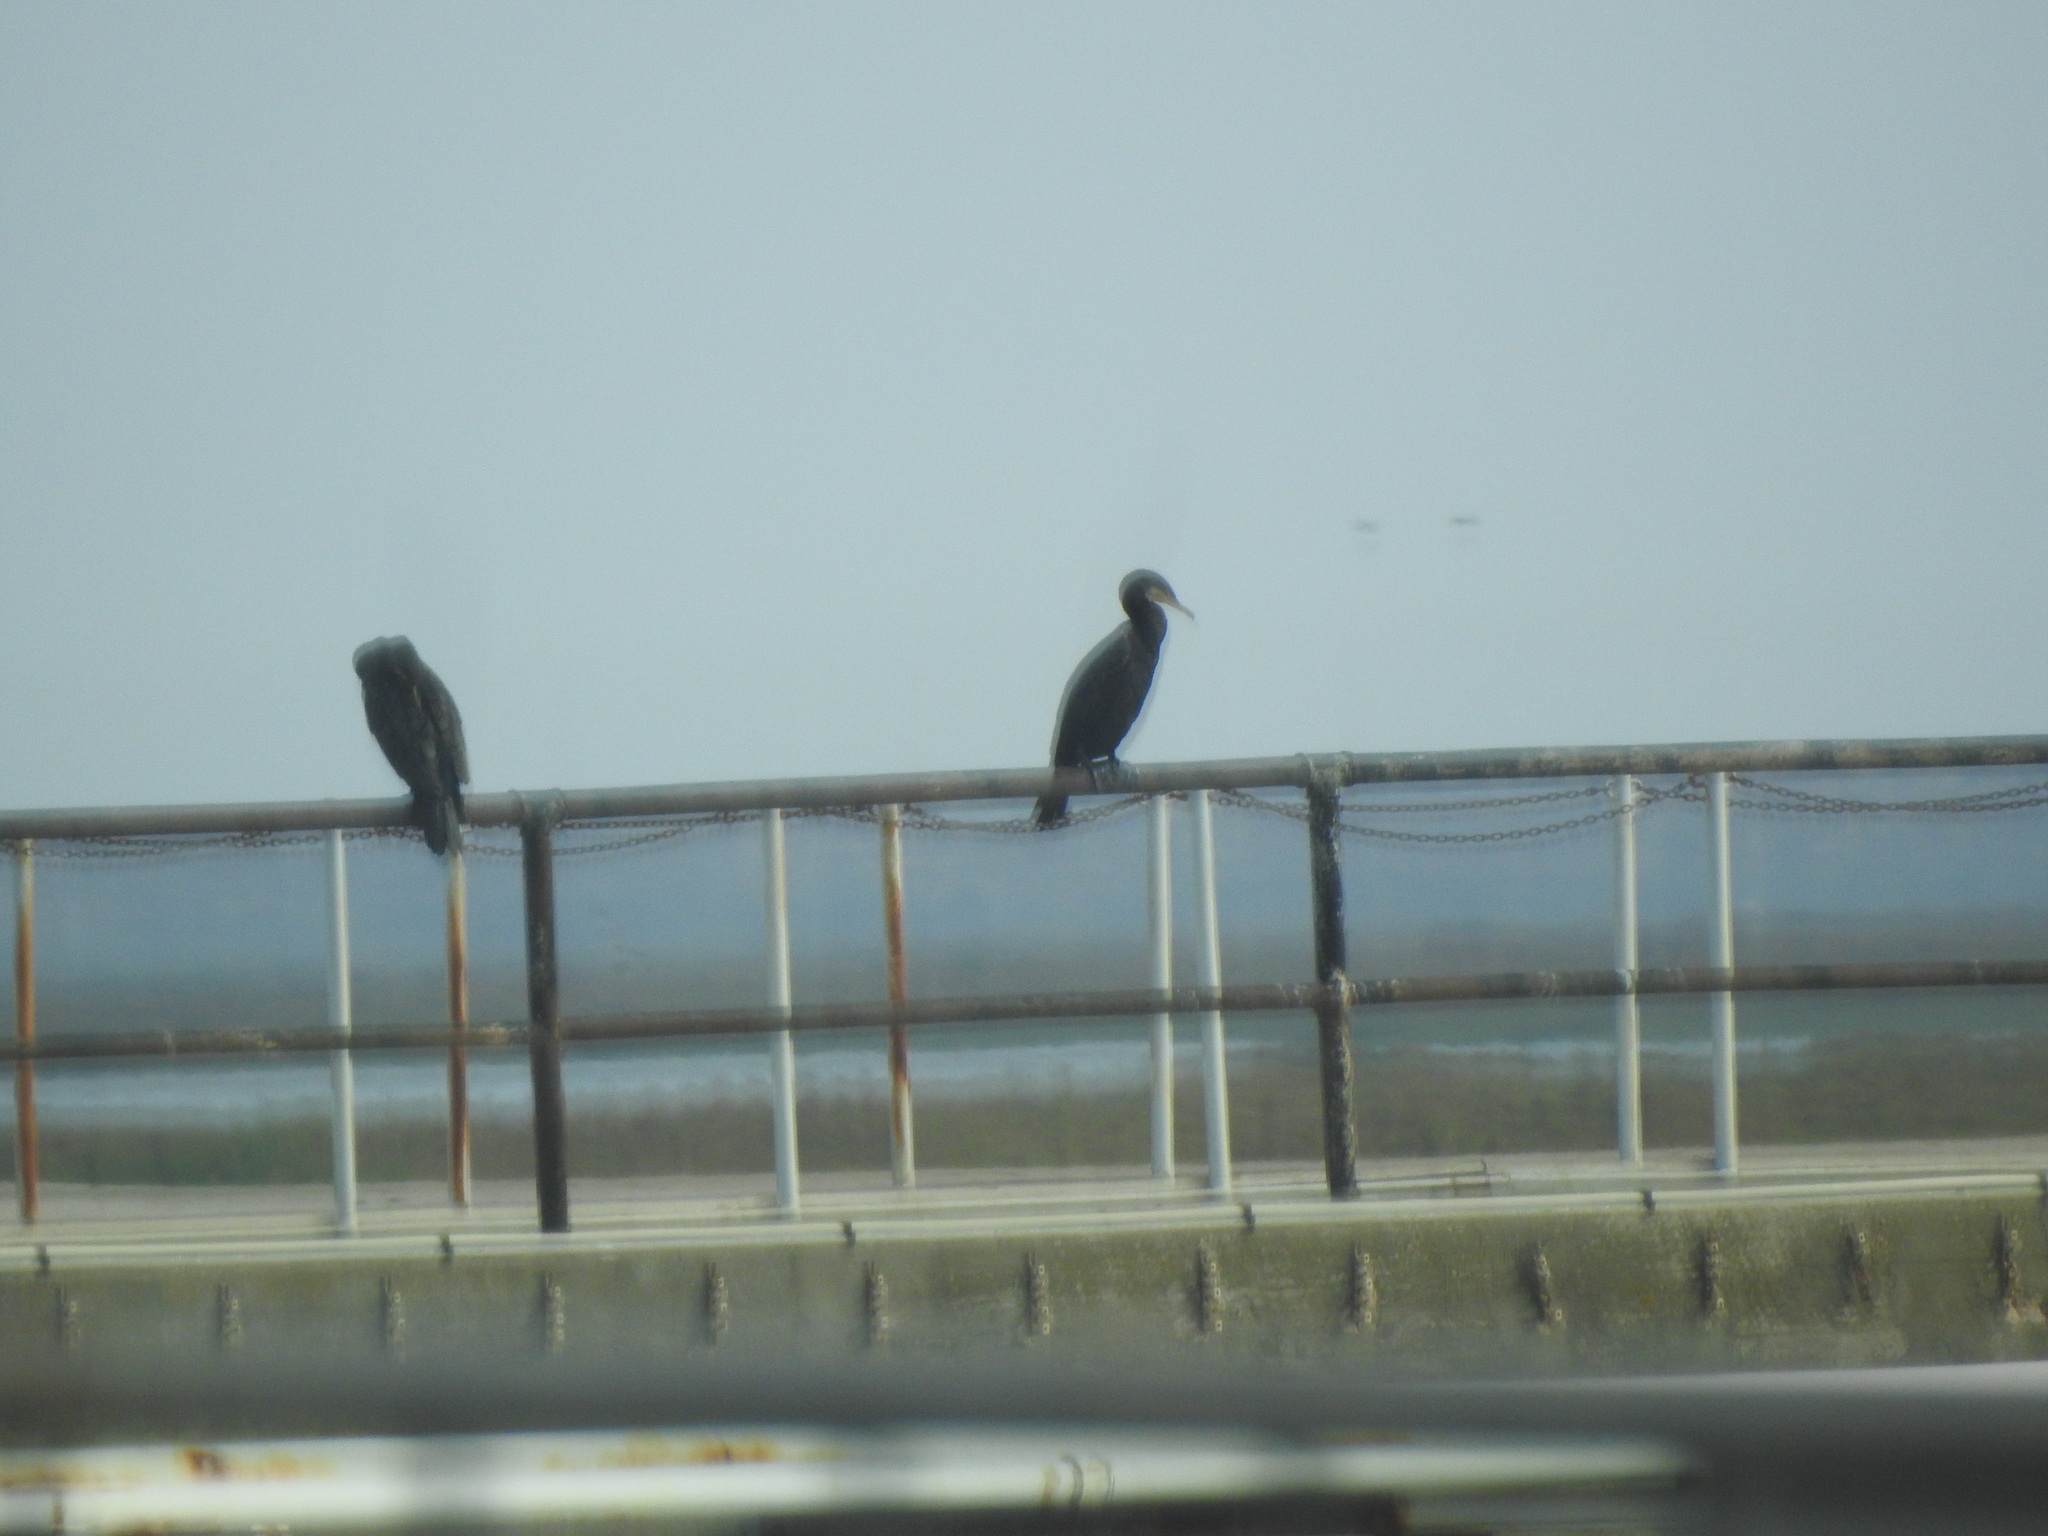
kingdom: Animalia
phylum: Chordata
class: Aves
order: Suliformes
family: Phalacrocoracidae
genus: Phalacrocorax
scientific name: Phalacrocorax carbo
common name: Great cormorant
